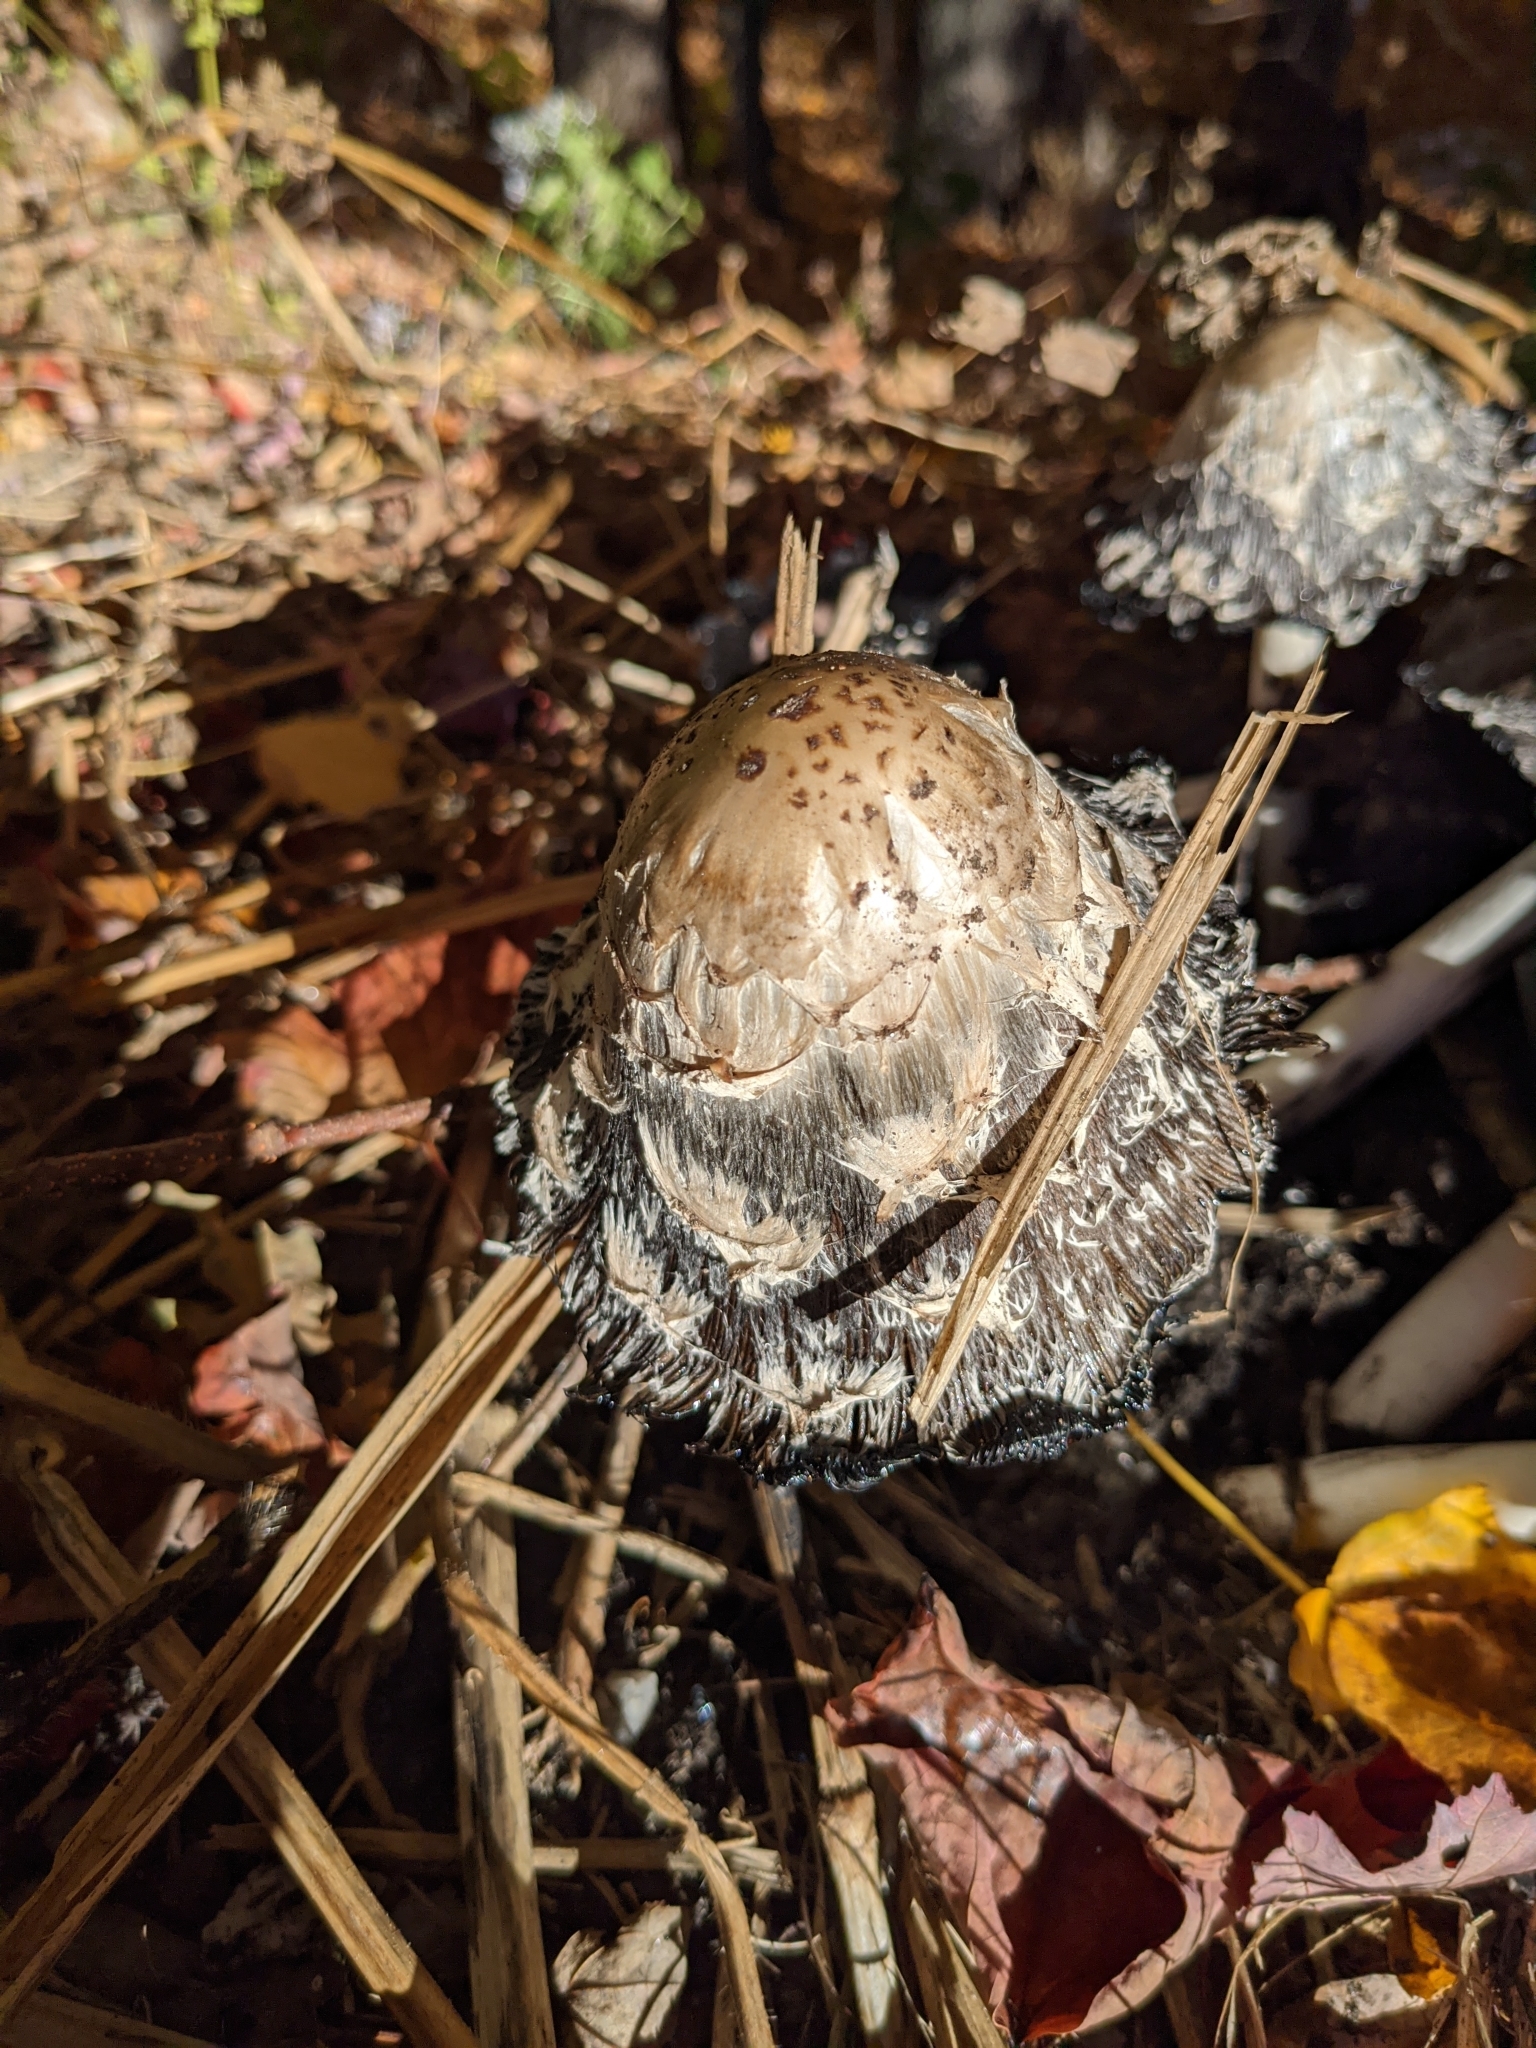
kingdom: Fungi
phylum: Basidiomycota
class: Agaricomycetes
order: Agaricales
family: Agaricaceae
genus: Coprinus
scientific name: Coprinus comatus
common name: Lawyer's wig
